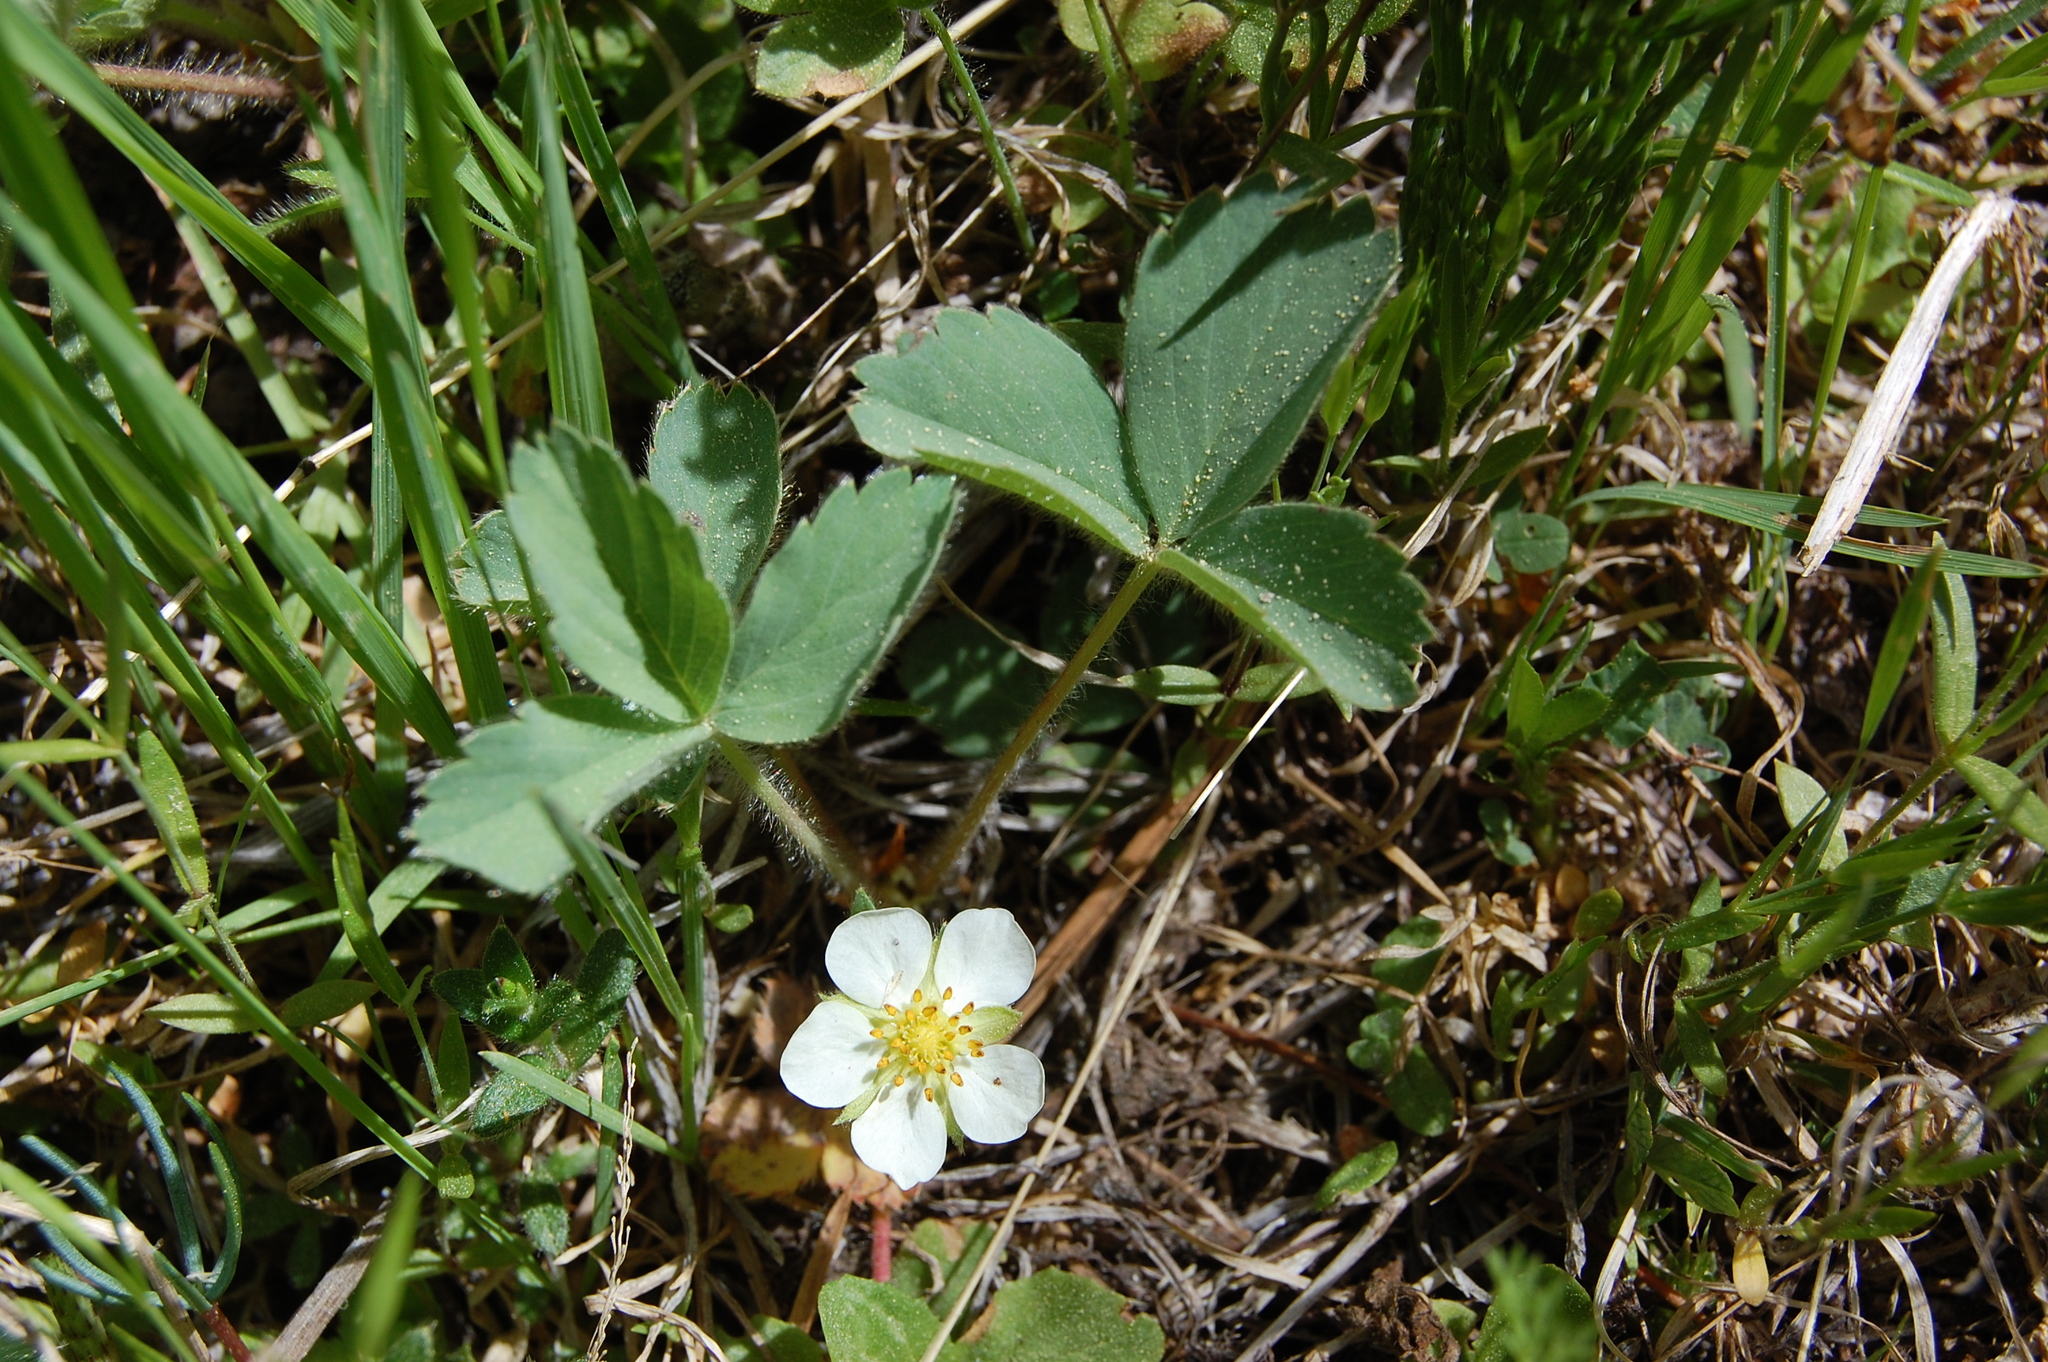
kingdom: Plantae
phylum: Tracheophyta
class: Magnoliopsida
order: Rosales
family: Rosaceae
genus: Fragaria
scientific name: Fragaria virginiana
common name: Thickleaved wild strawberry
